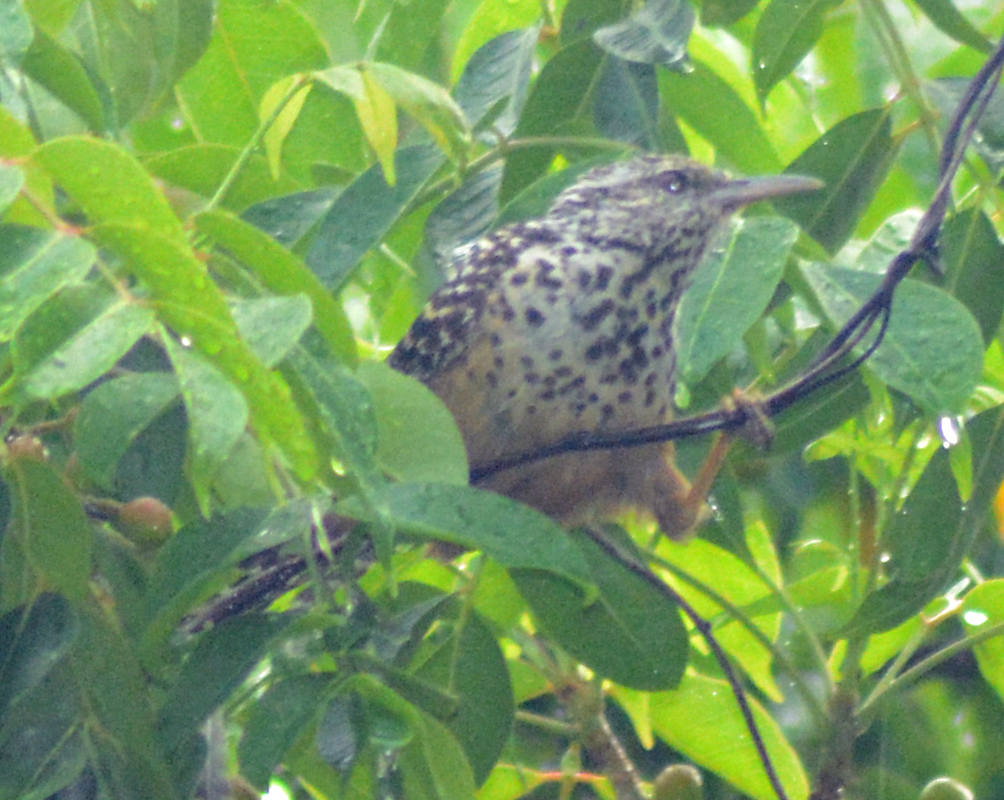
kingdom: Animalia
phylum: Chordata
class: Aves
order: Passeriformes
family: Troglodytidae
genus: Campylorhynchus
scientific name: Campylorhynchus zonatus
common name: Band-backed wren
